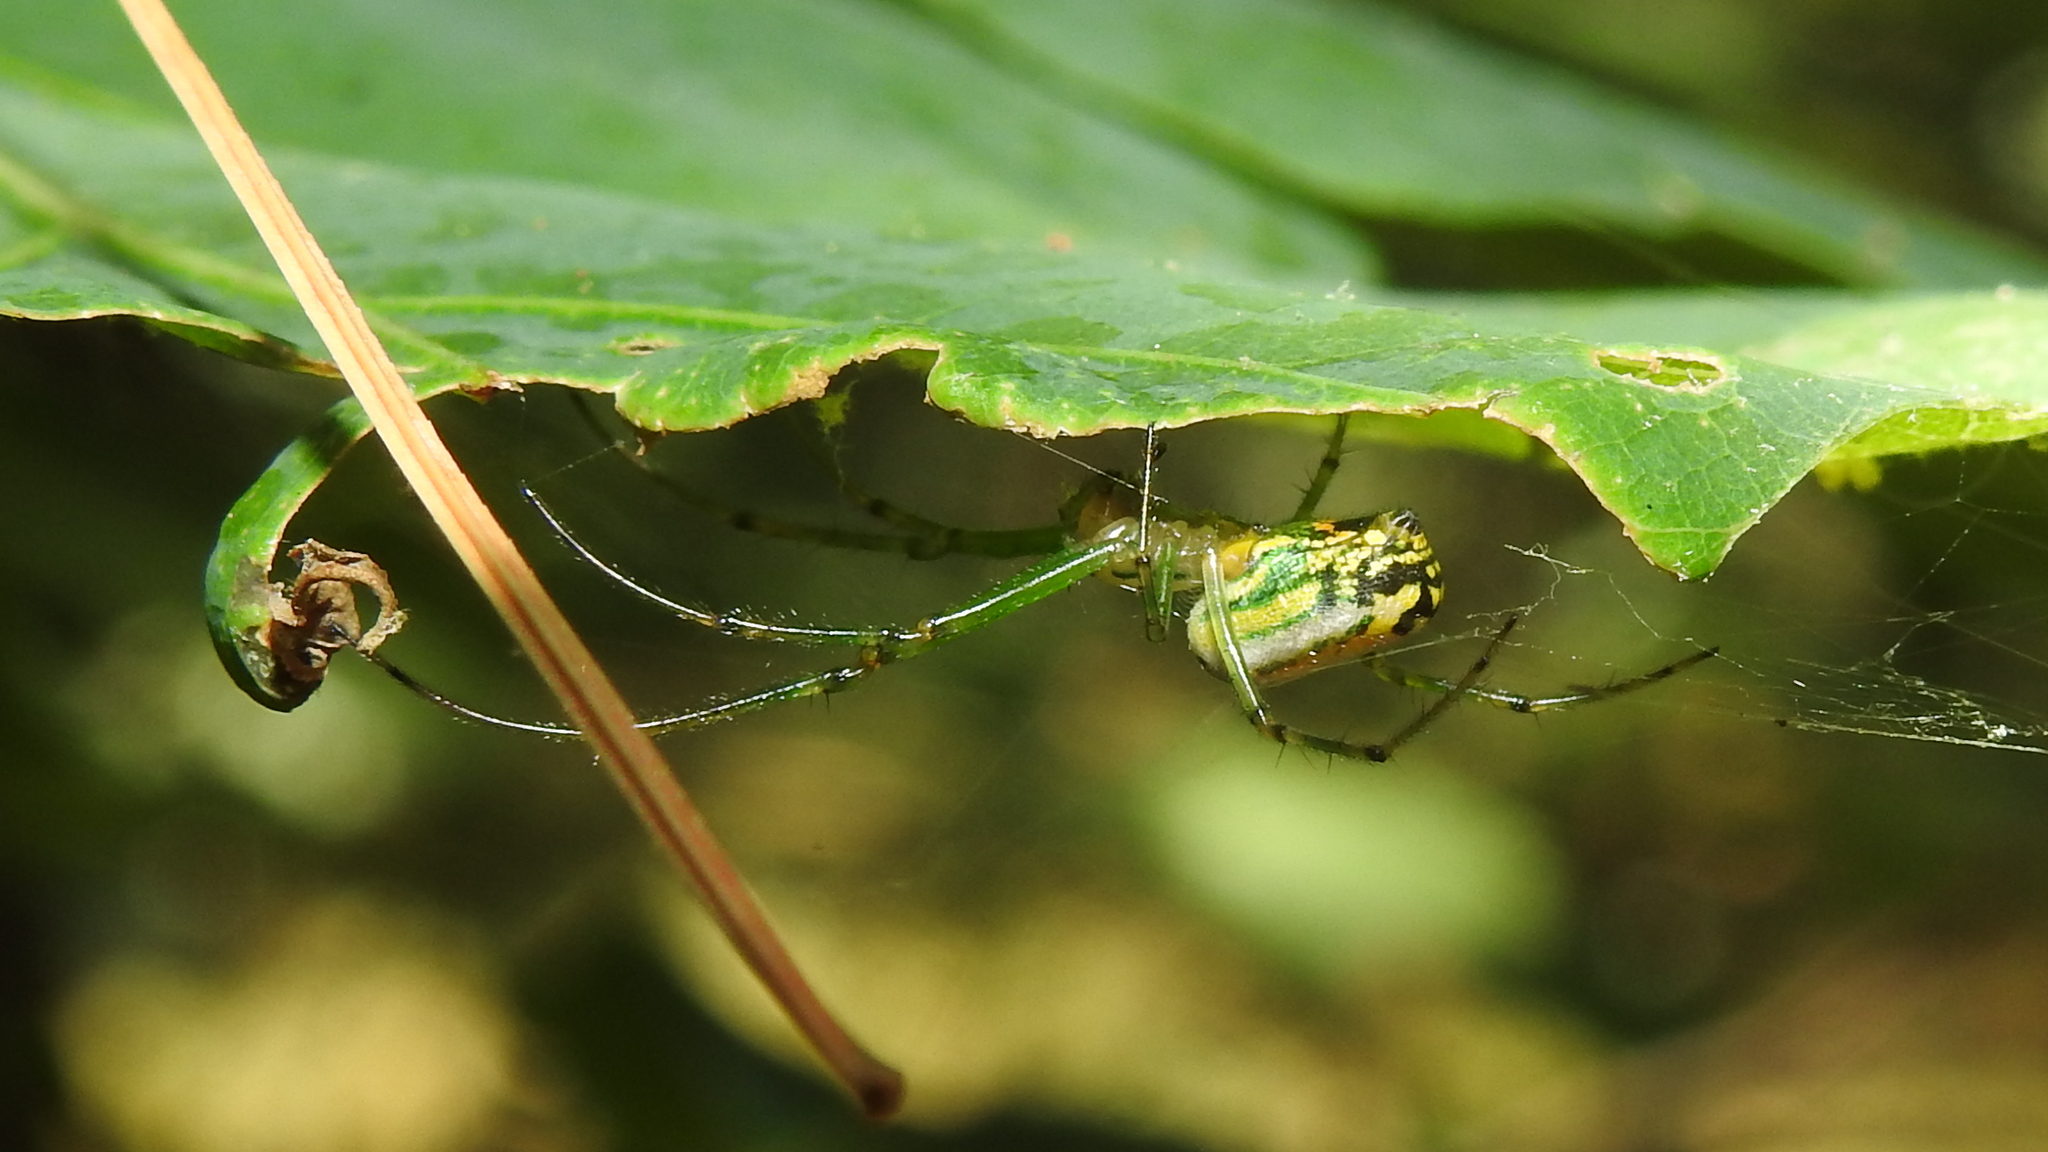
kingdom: Animalia
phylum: Arthropoda
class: Arachnida
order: Araneae
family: Tetragnathidae
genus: Leucauge
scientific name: Leucauge venusta
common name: Longjawed orb weavers
